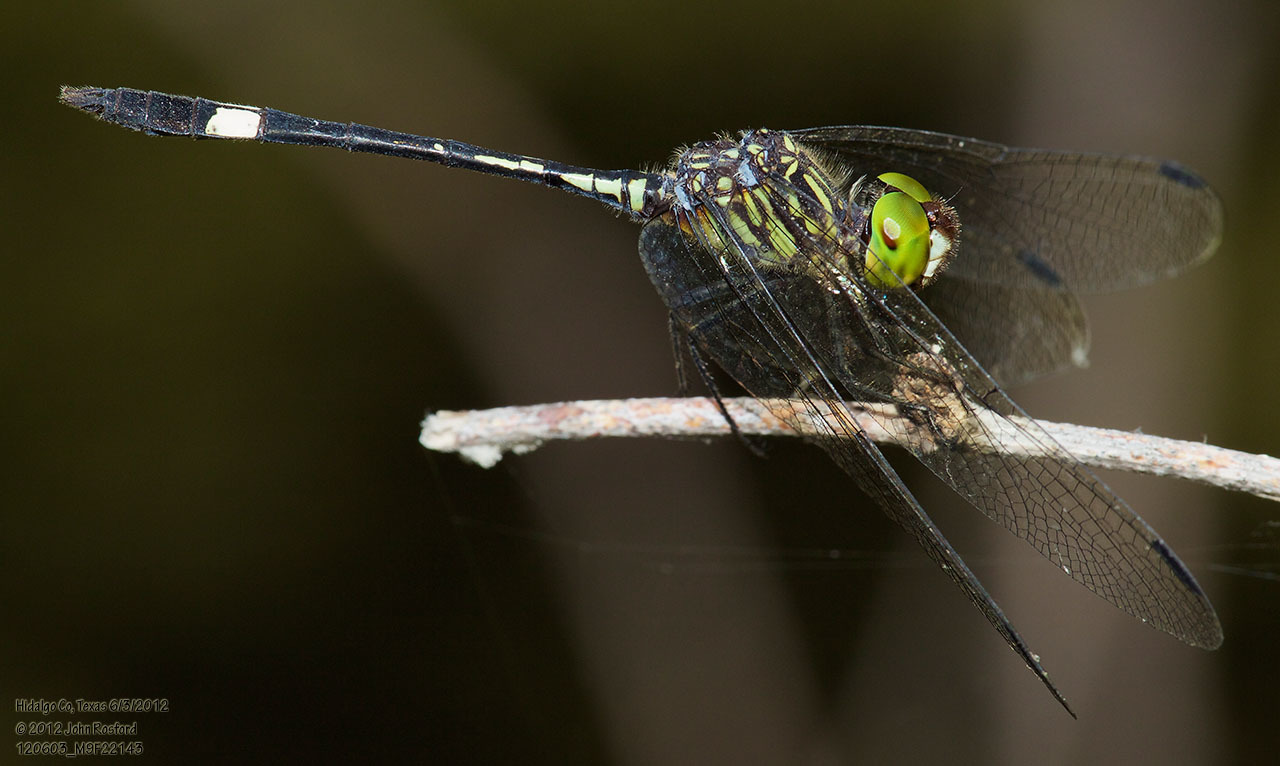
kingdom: Animalia
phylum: Arthropoda
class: Insecta
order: Odonata
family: Libellulidae
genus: Micrathyria
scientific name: Micrathyria dissocians
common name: Caribbean dasher
